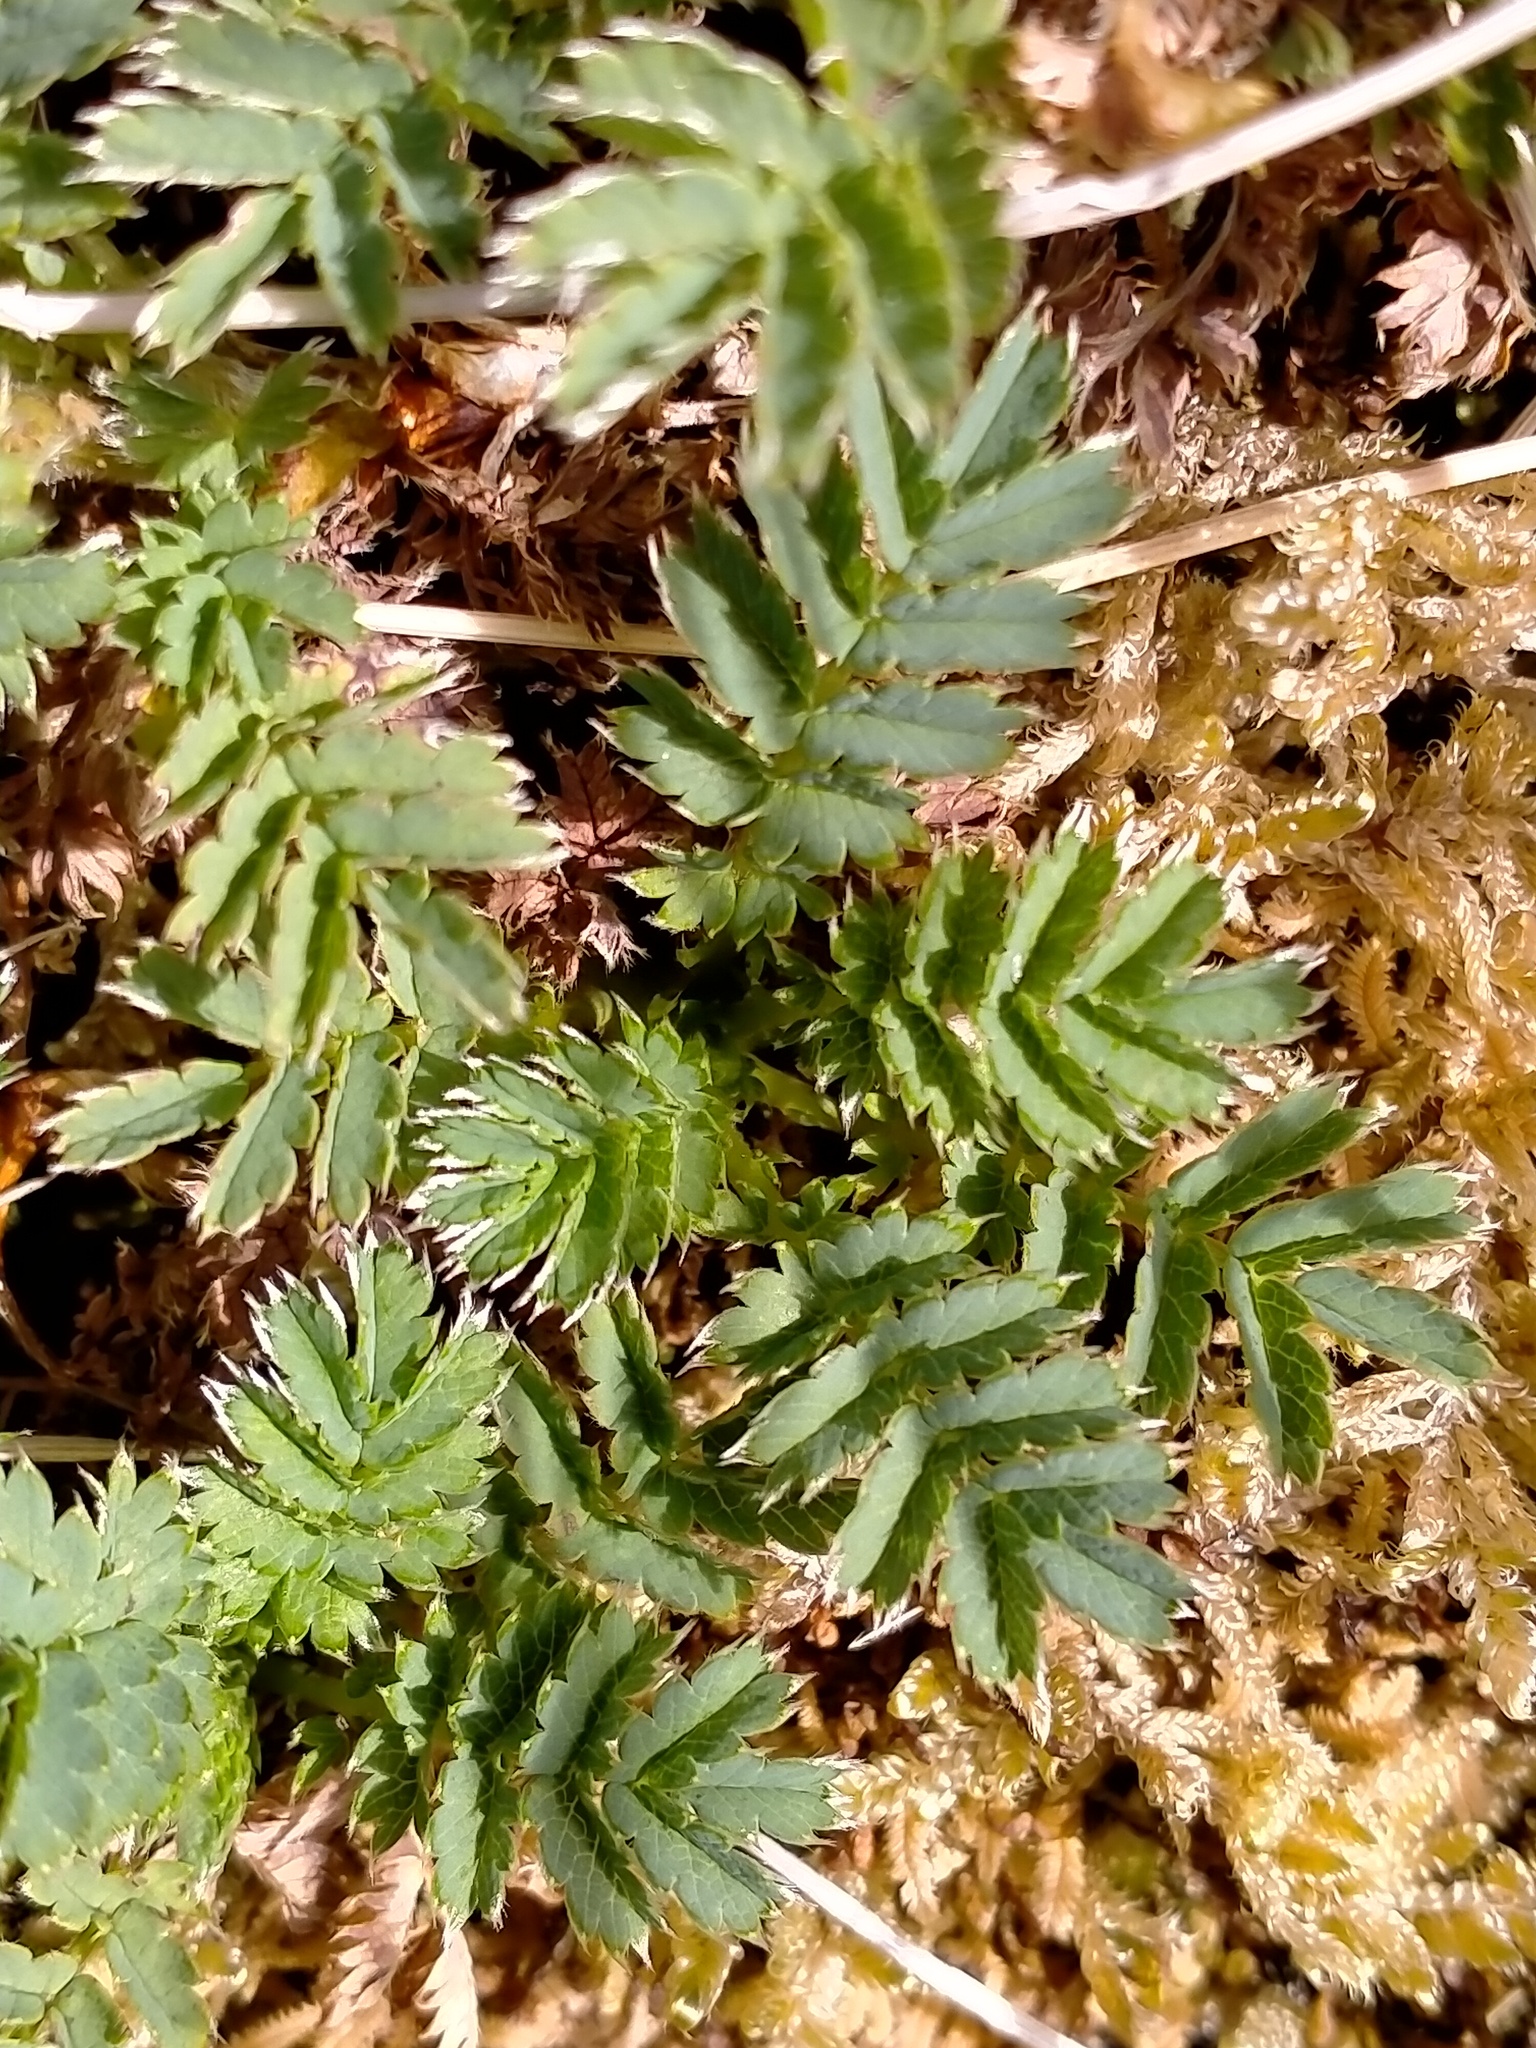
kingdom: Plantae
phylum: Tracheophyta
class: Magnoliopsida
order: Rosales
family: Rosaceae
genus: Acaena
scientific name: Acaena minor
